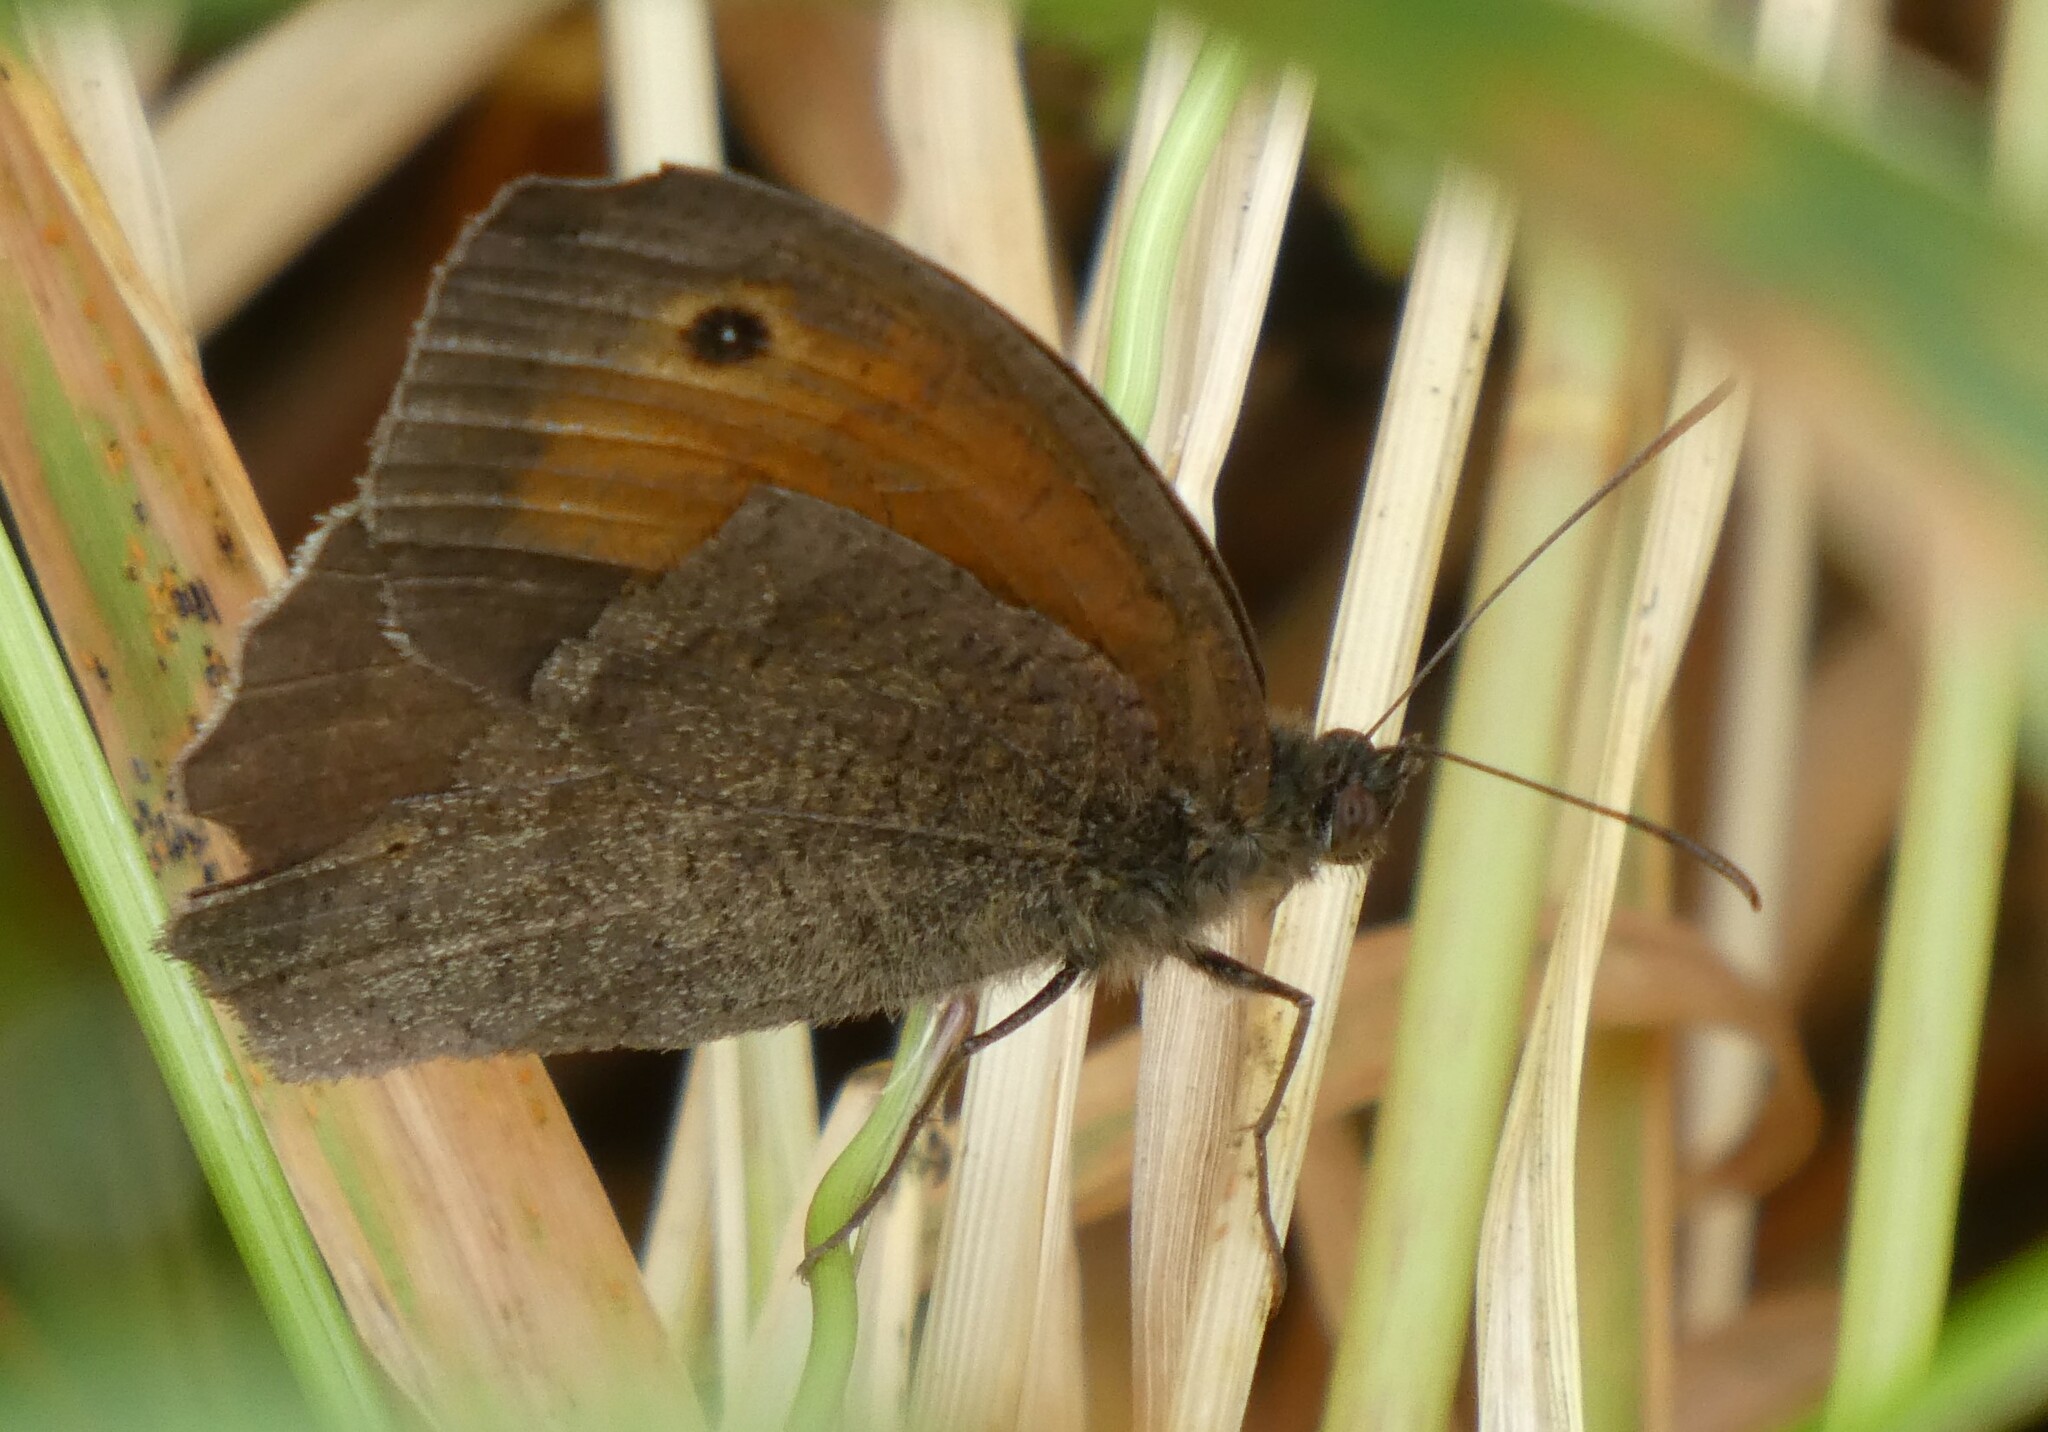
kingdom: Animalia
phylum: Arthropoda
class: Insecta
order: Lepidoptera
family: Nymphalidae
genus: Maniola
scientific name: Maniola jurtina
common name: Meadow brown
